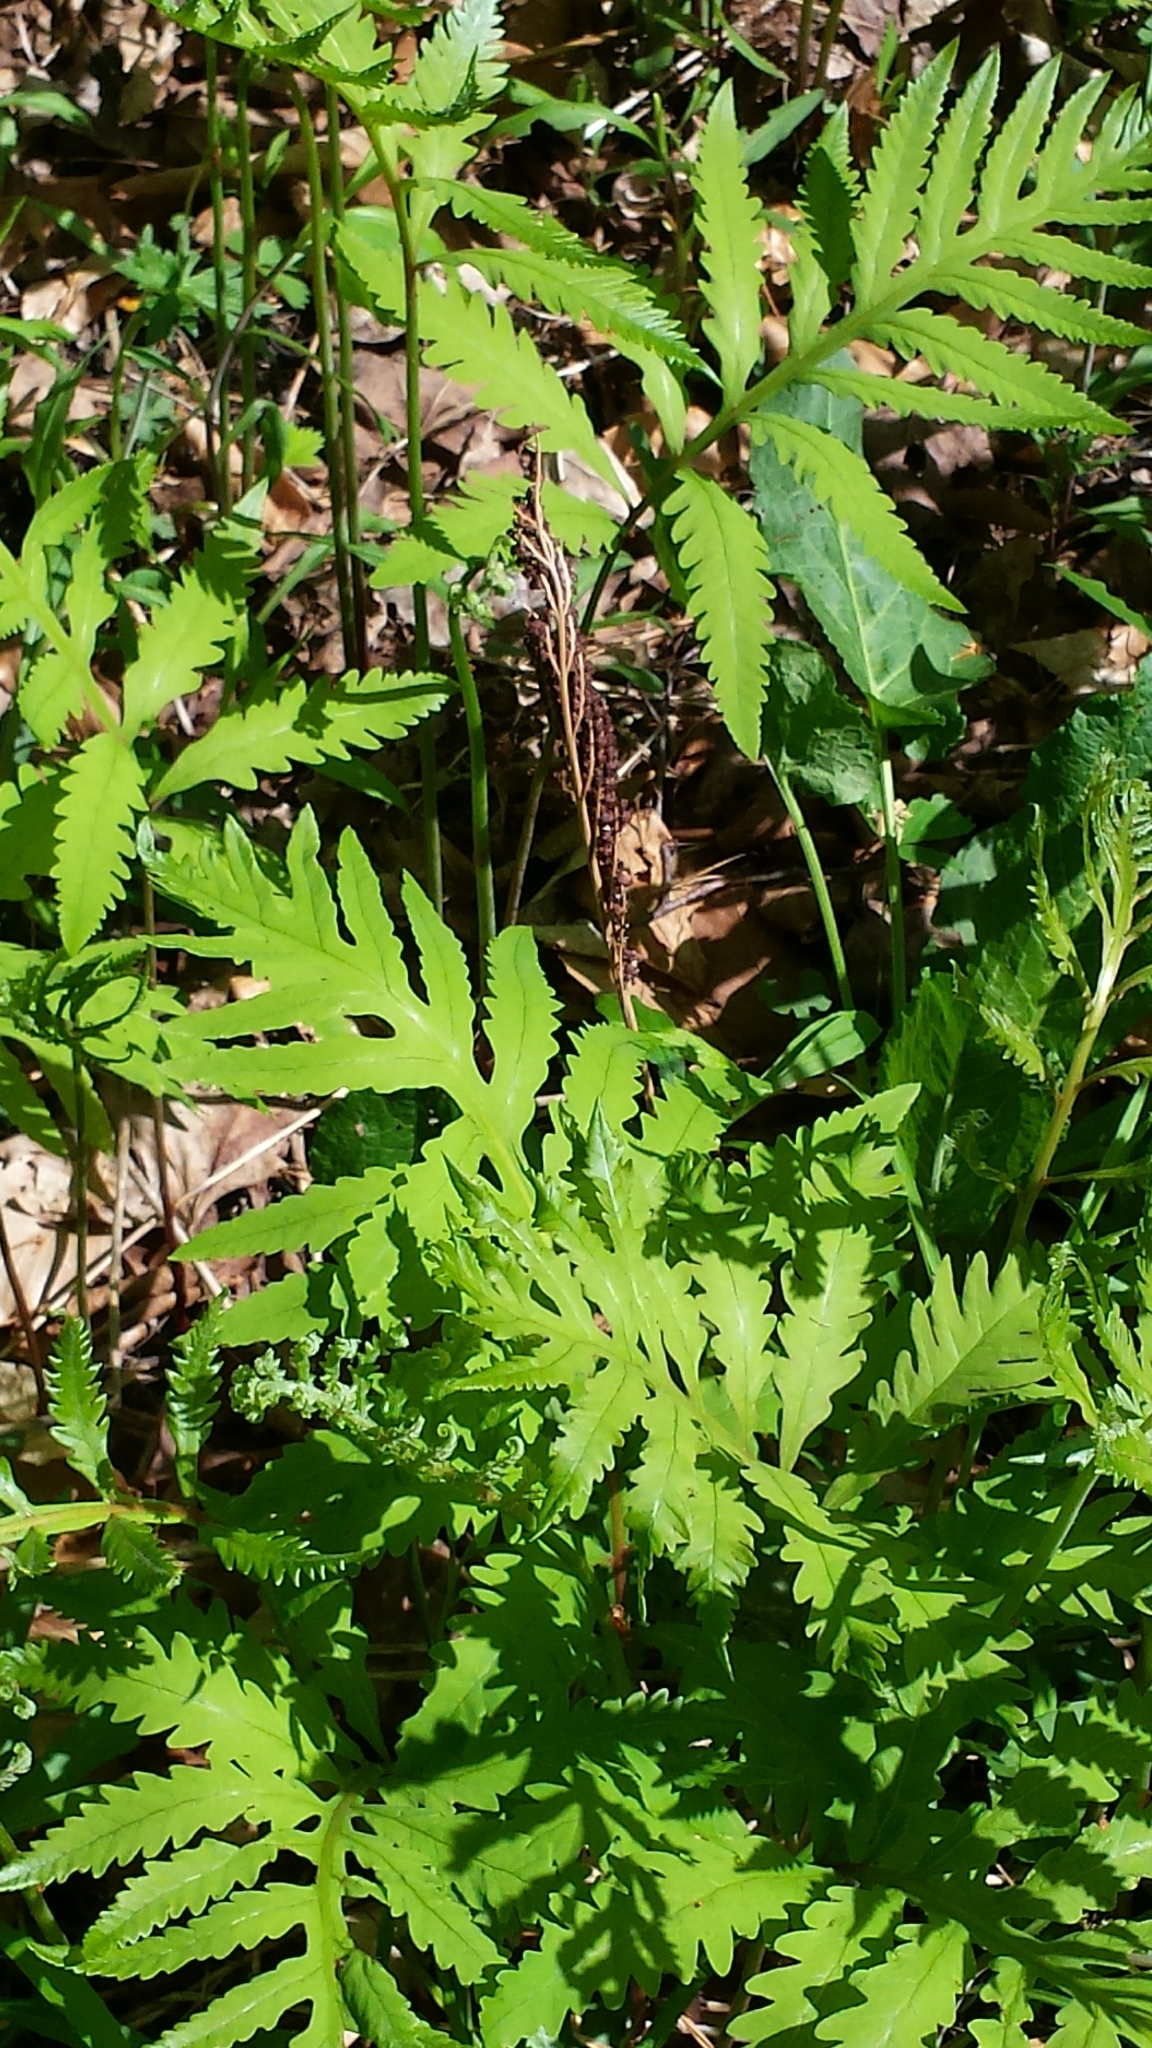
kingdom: Plantae
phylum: Tracheophyta
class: Polypodiopsida
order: Polypodiales
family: Onocleaceae
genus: Onoclea
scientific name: Onoclea sensibilis
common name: Sensitive fern
